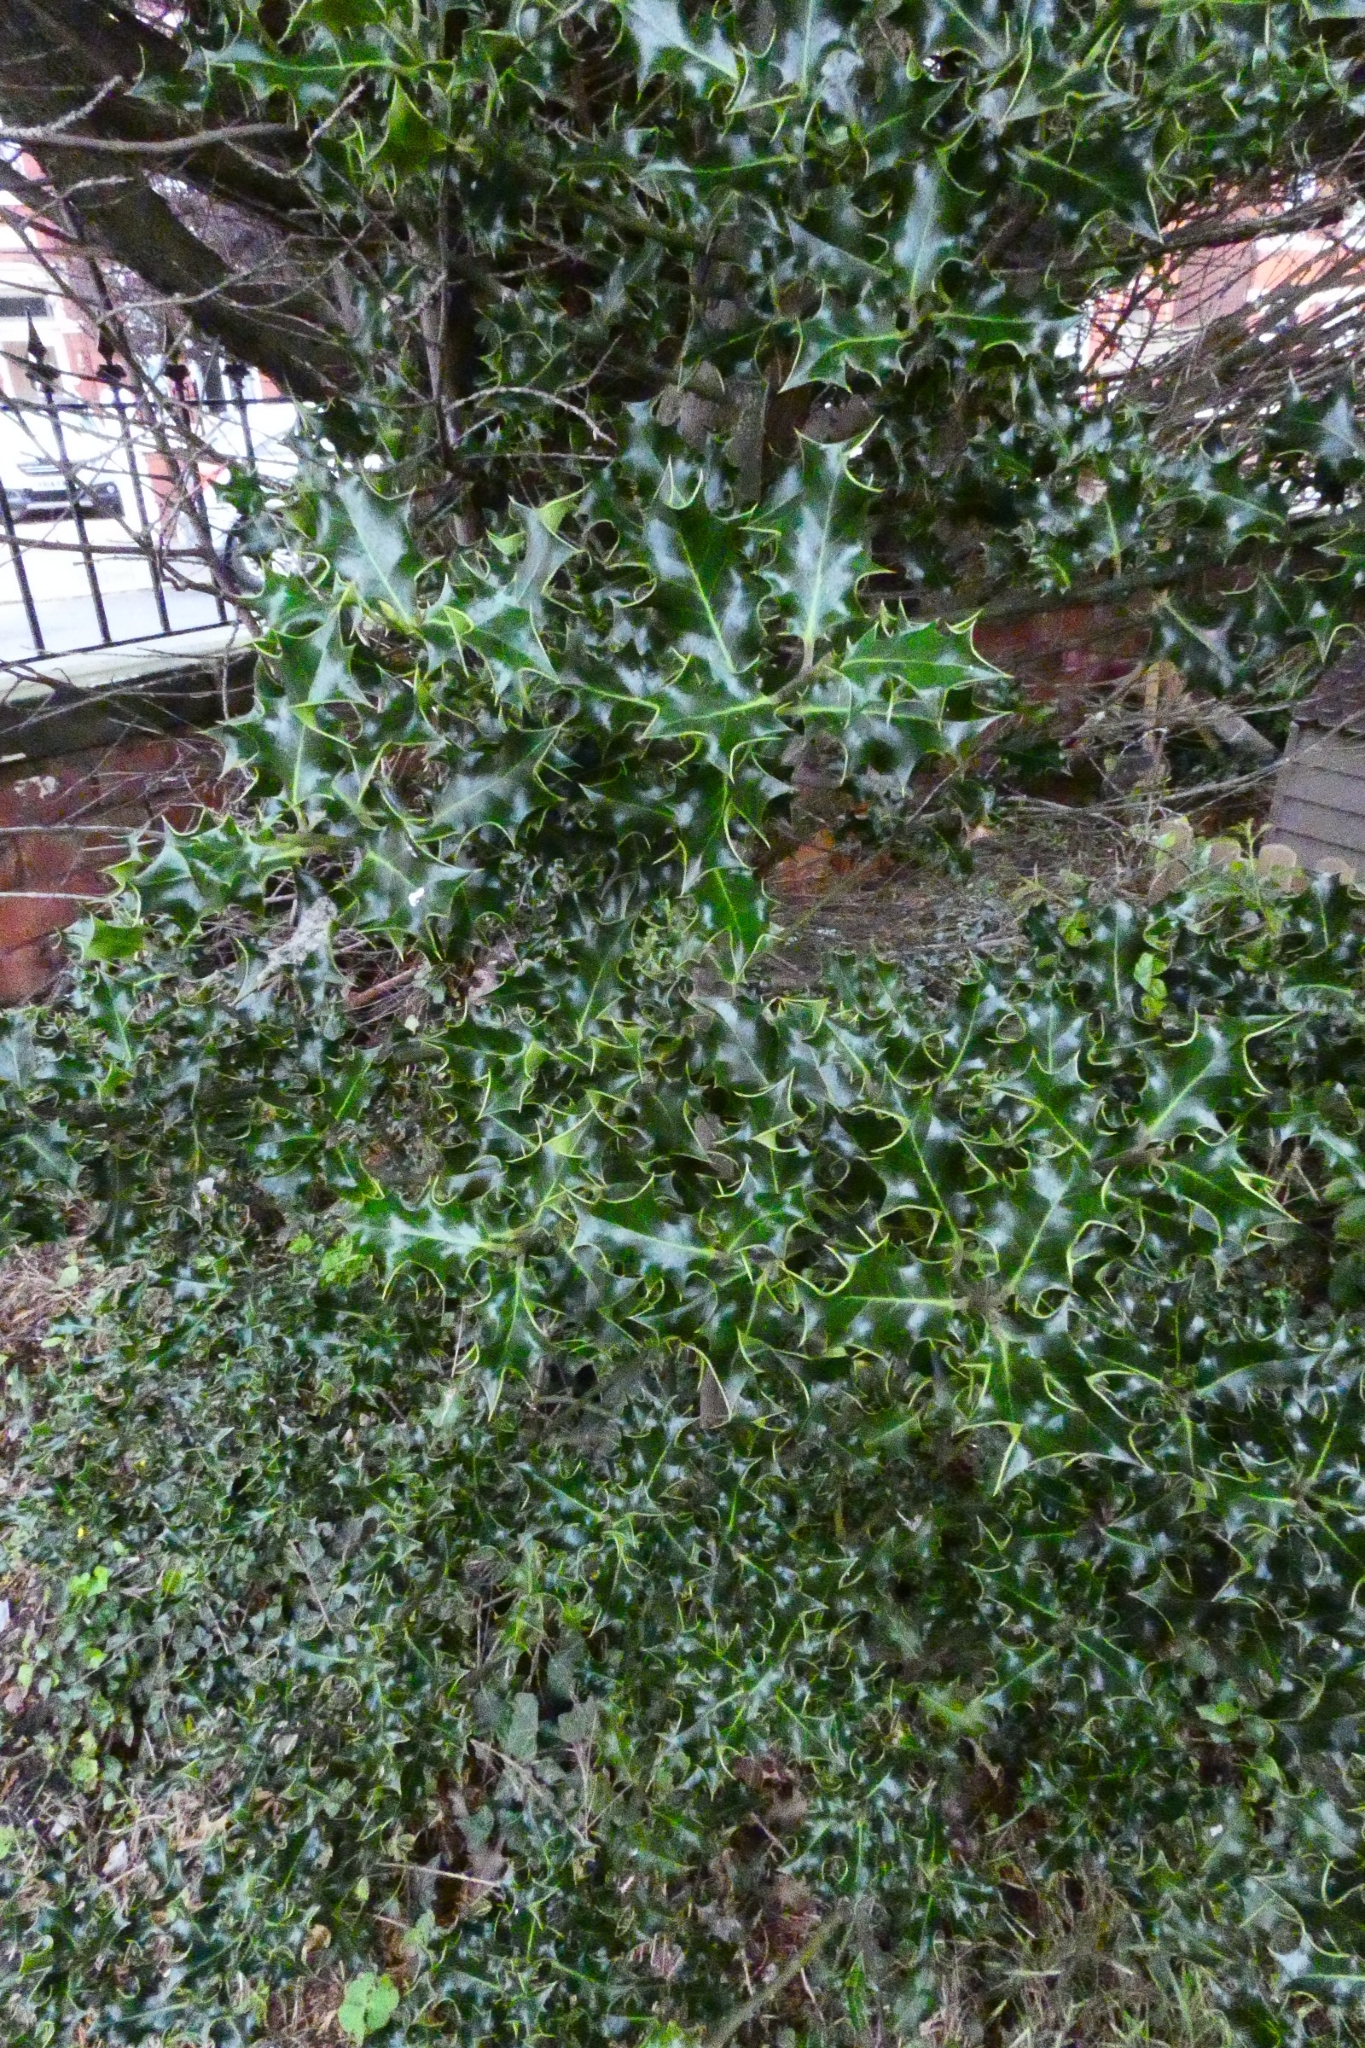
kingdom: Plantae
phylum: Tracheophyta
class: Magnoliopsida
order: Aquifoliales
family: Aquifoliaceae
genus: Ilex
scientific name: Ilex aquifolium
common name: English holly
